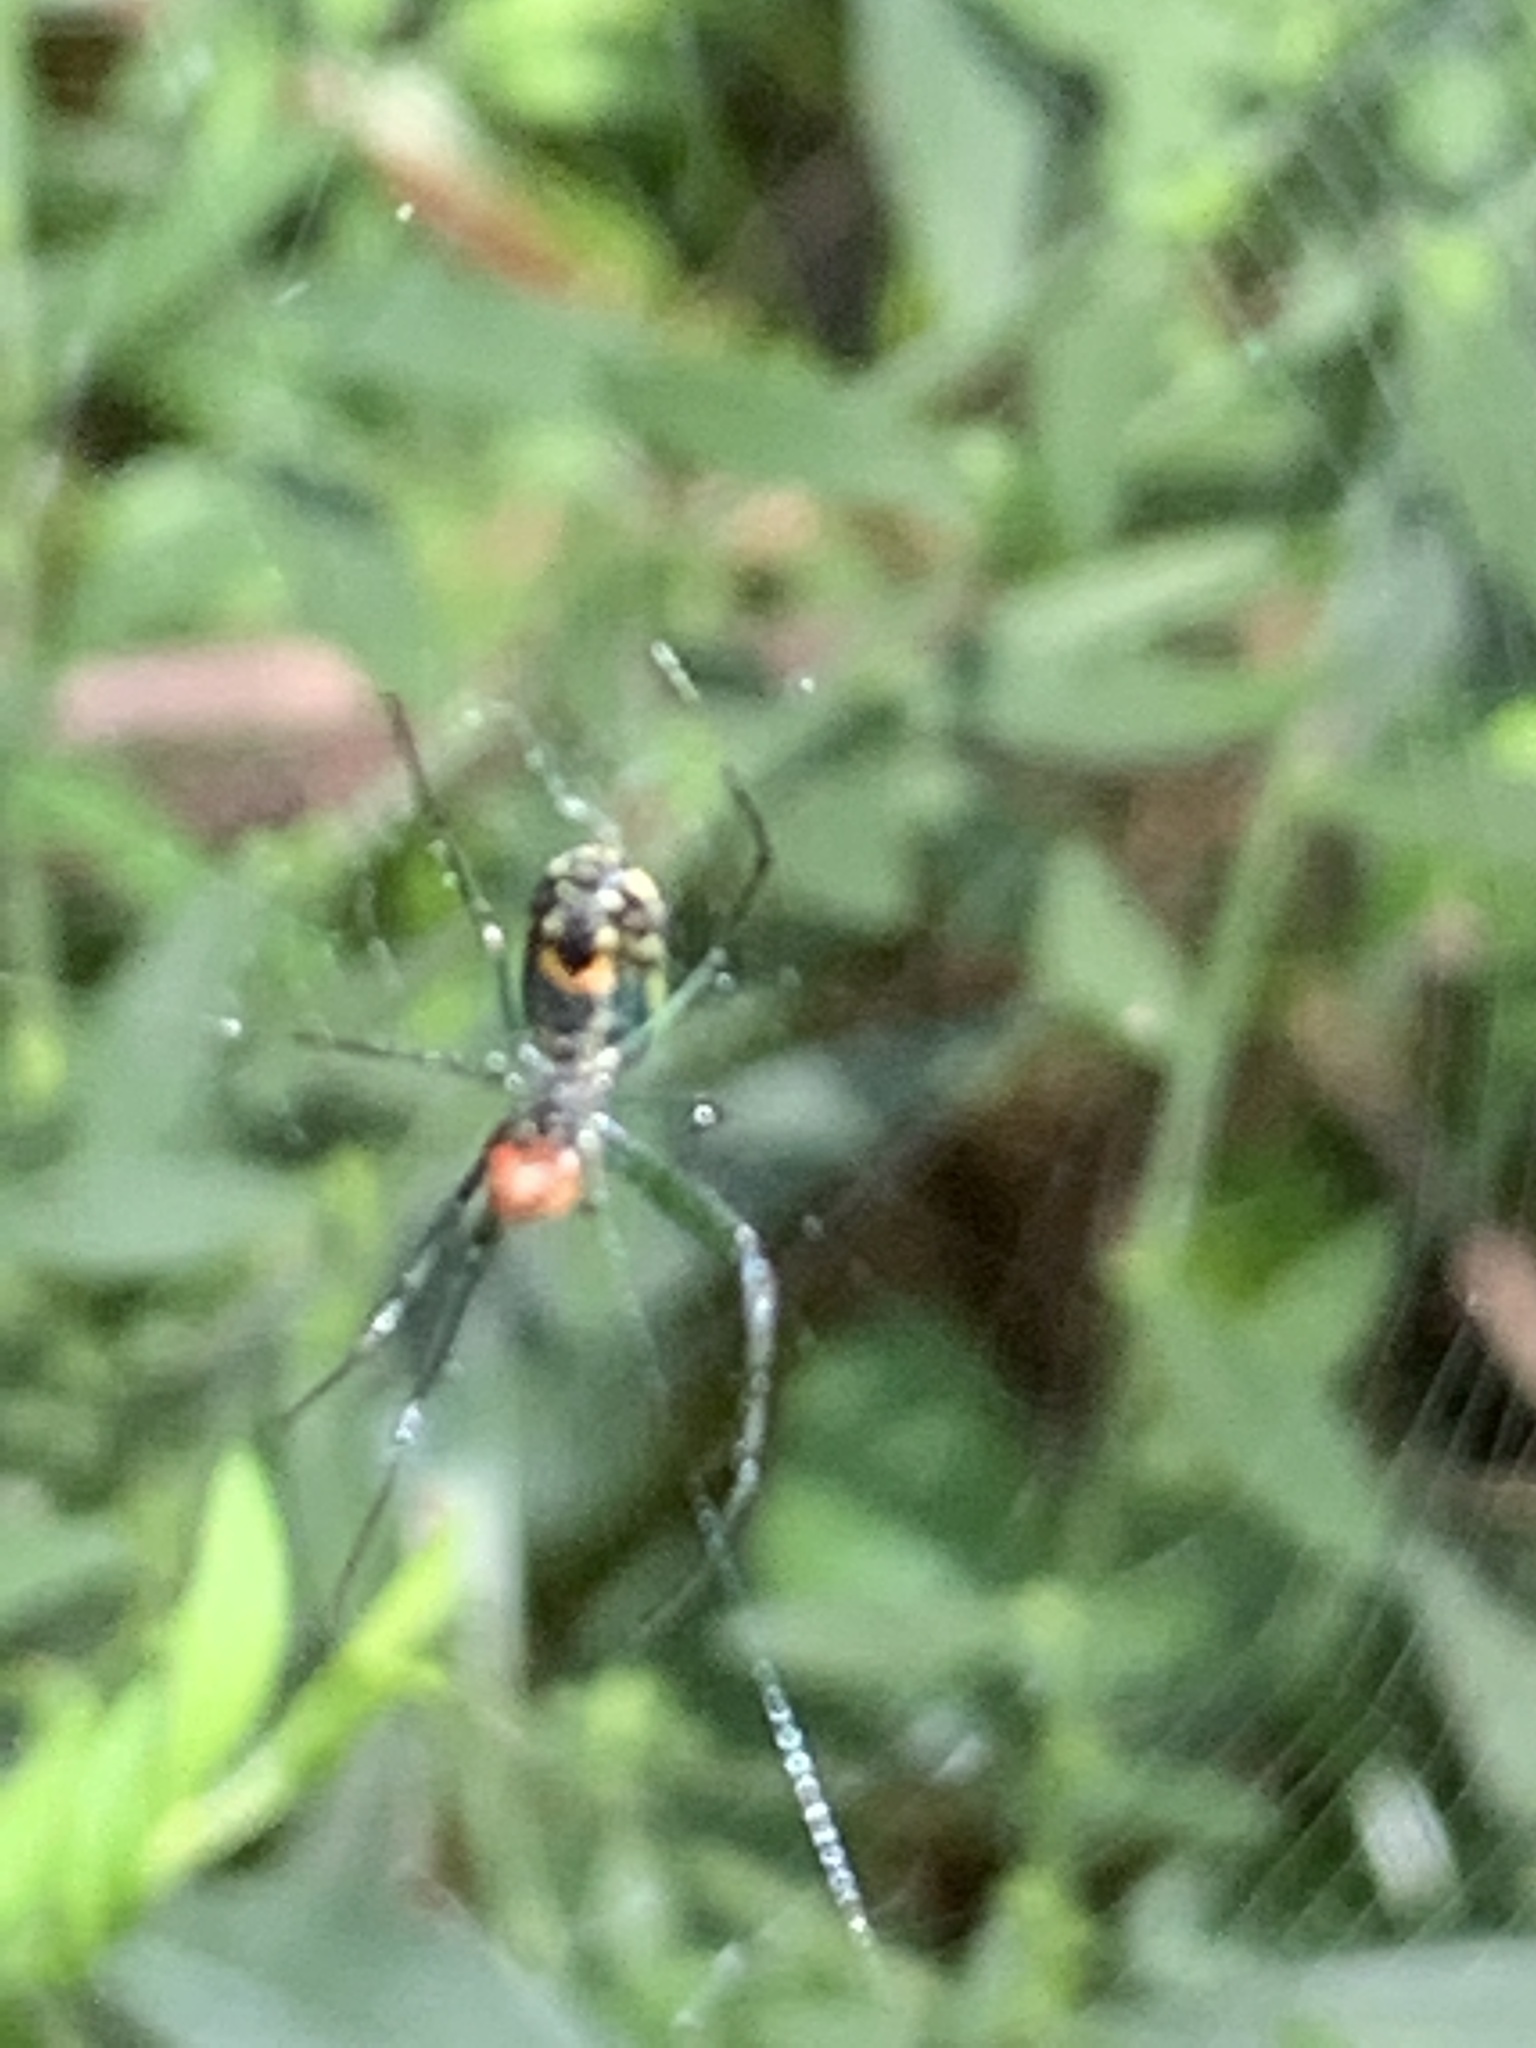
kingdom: Animalia
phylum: Arthropoda
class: Arachnida
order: Araneae
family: Tetragnathidae
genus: Leucauge
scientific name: Leucauge venusta
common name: Longjawed orb weavers
